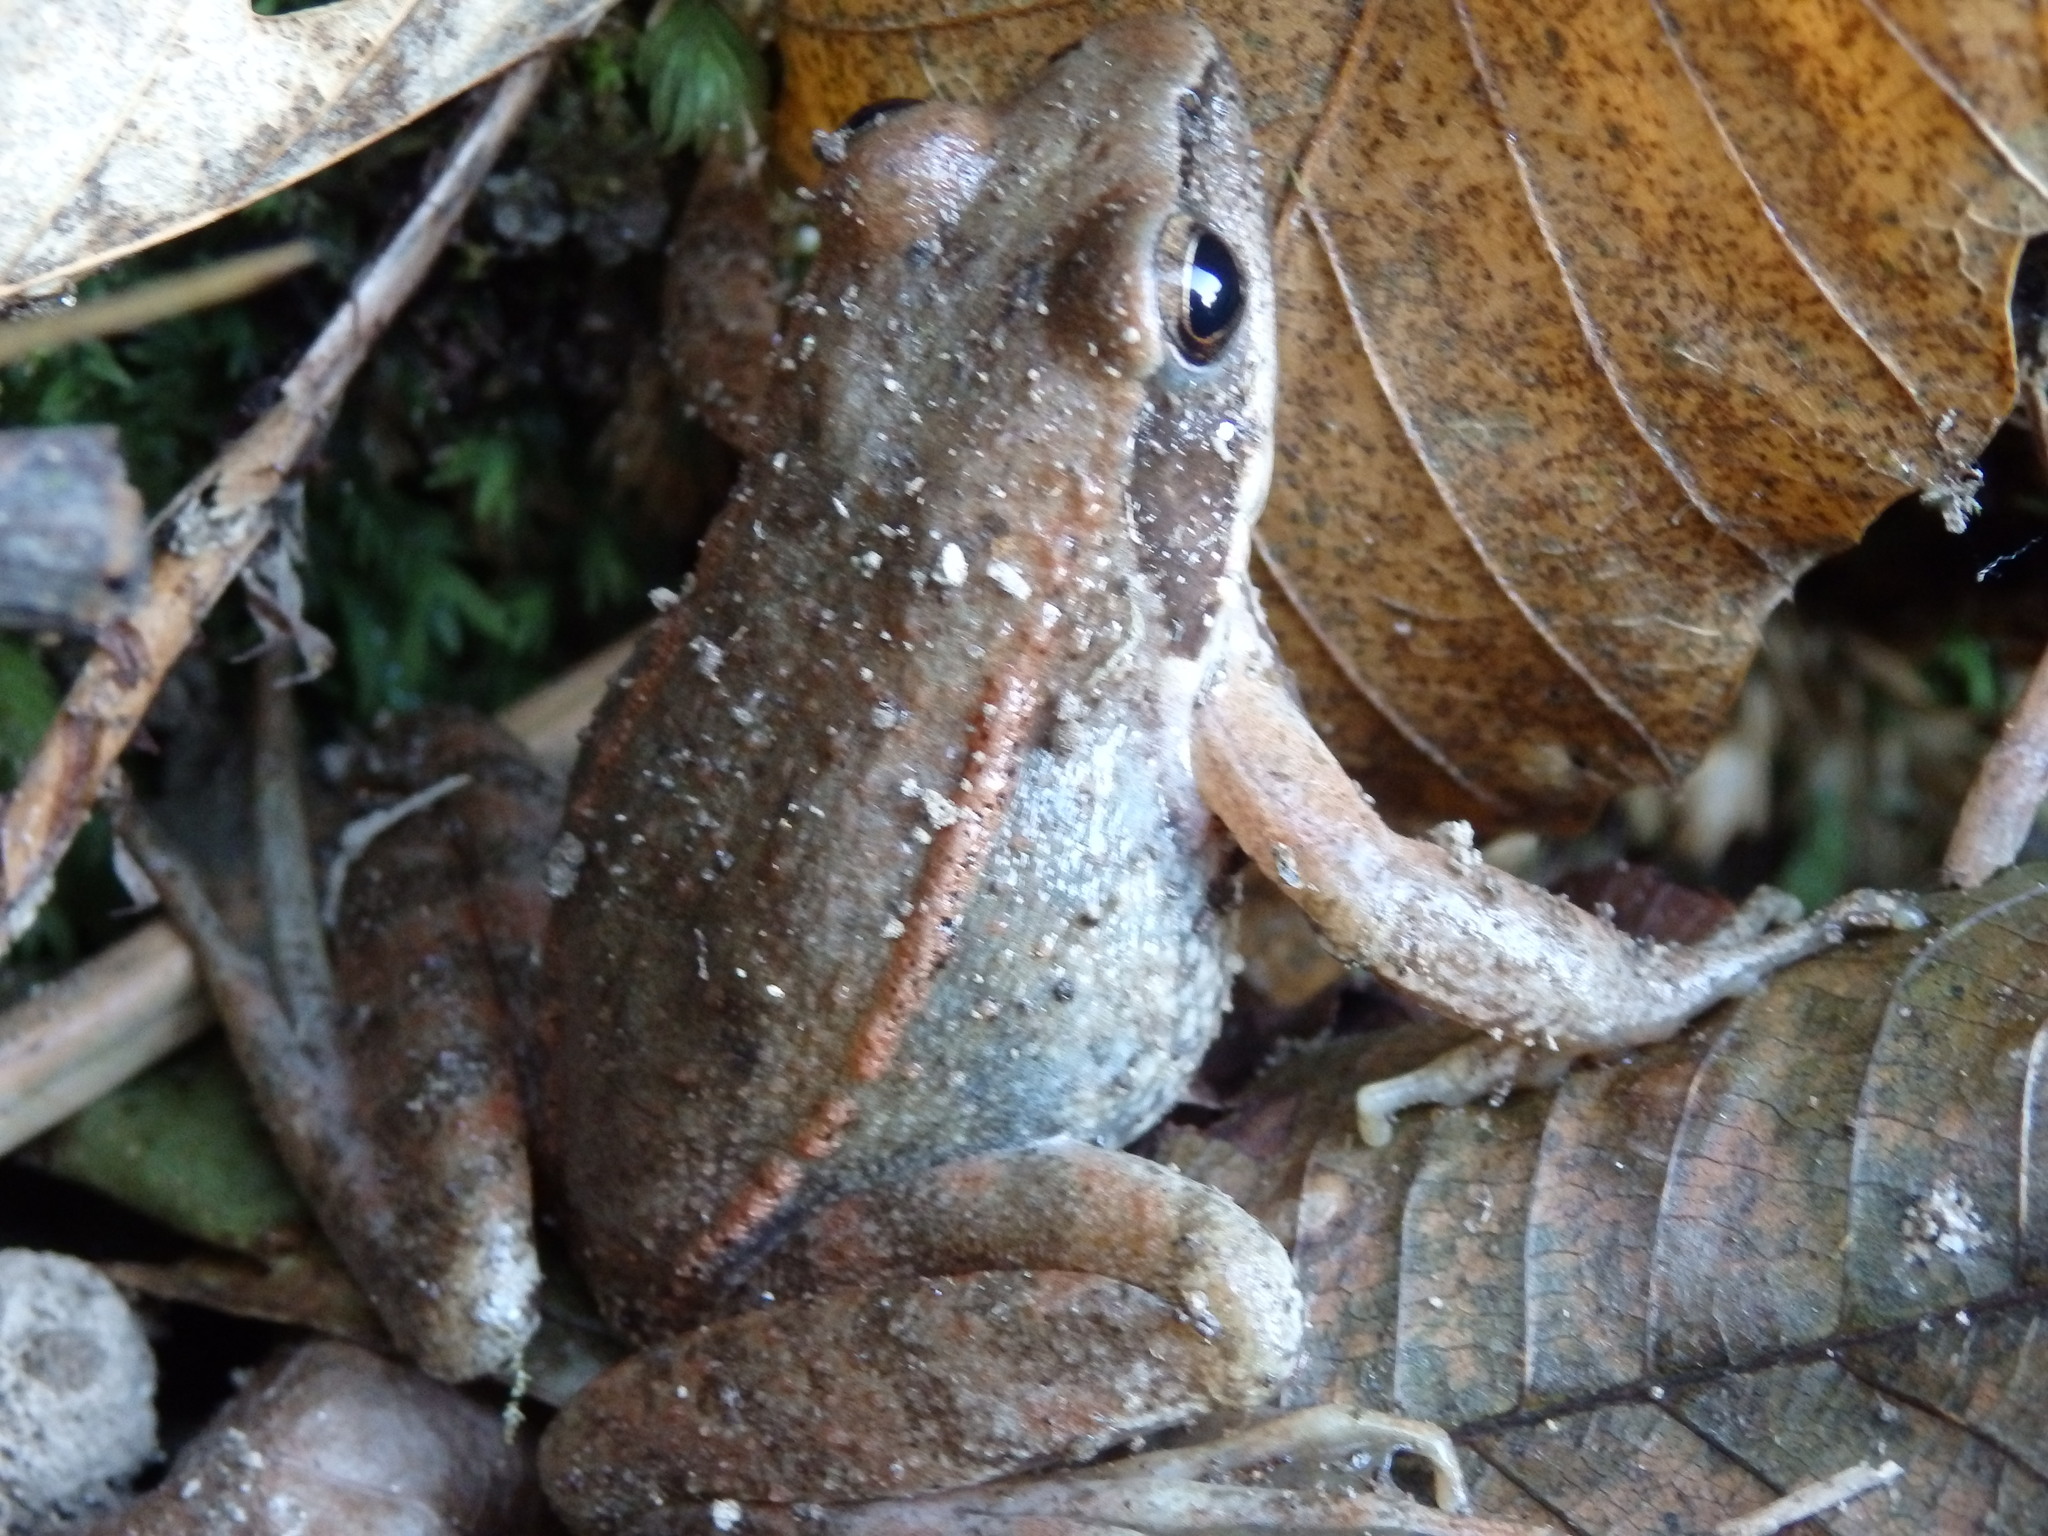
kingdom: Animalia
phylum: Chordata
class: Amphibia
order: Anura
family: Ranidae
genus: Rana
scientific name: Rana iberica
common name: Iberian frog
